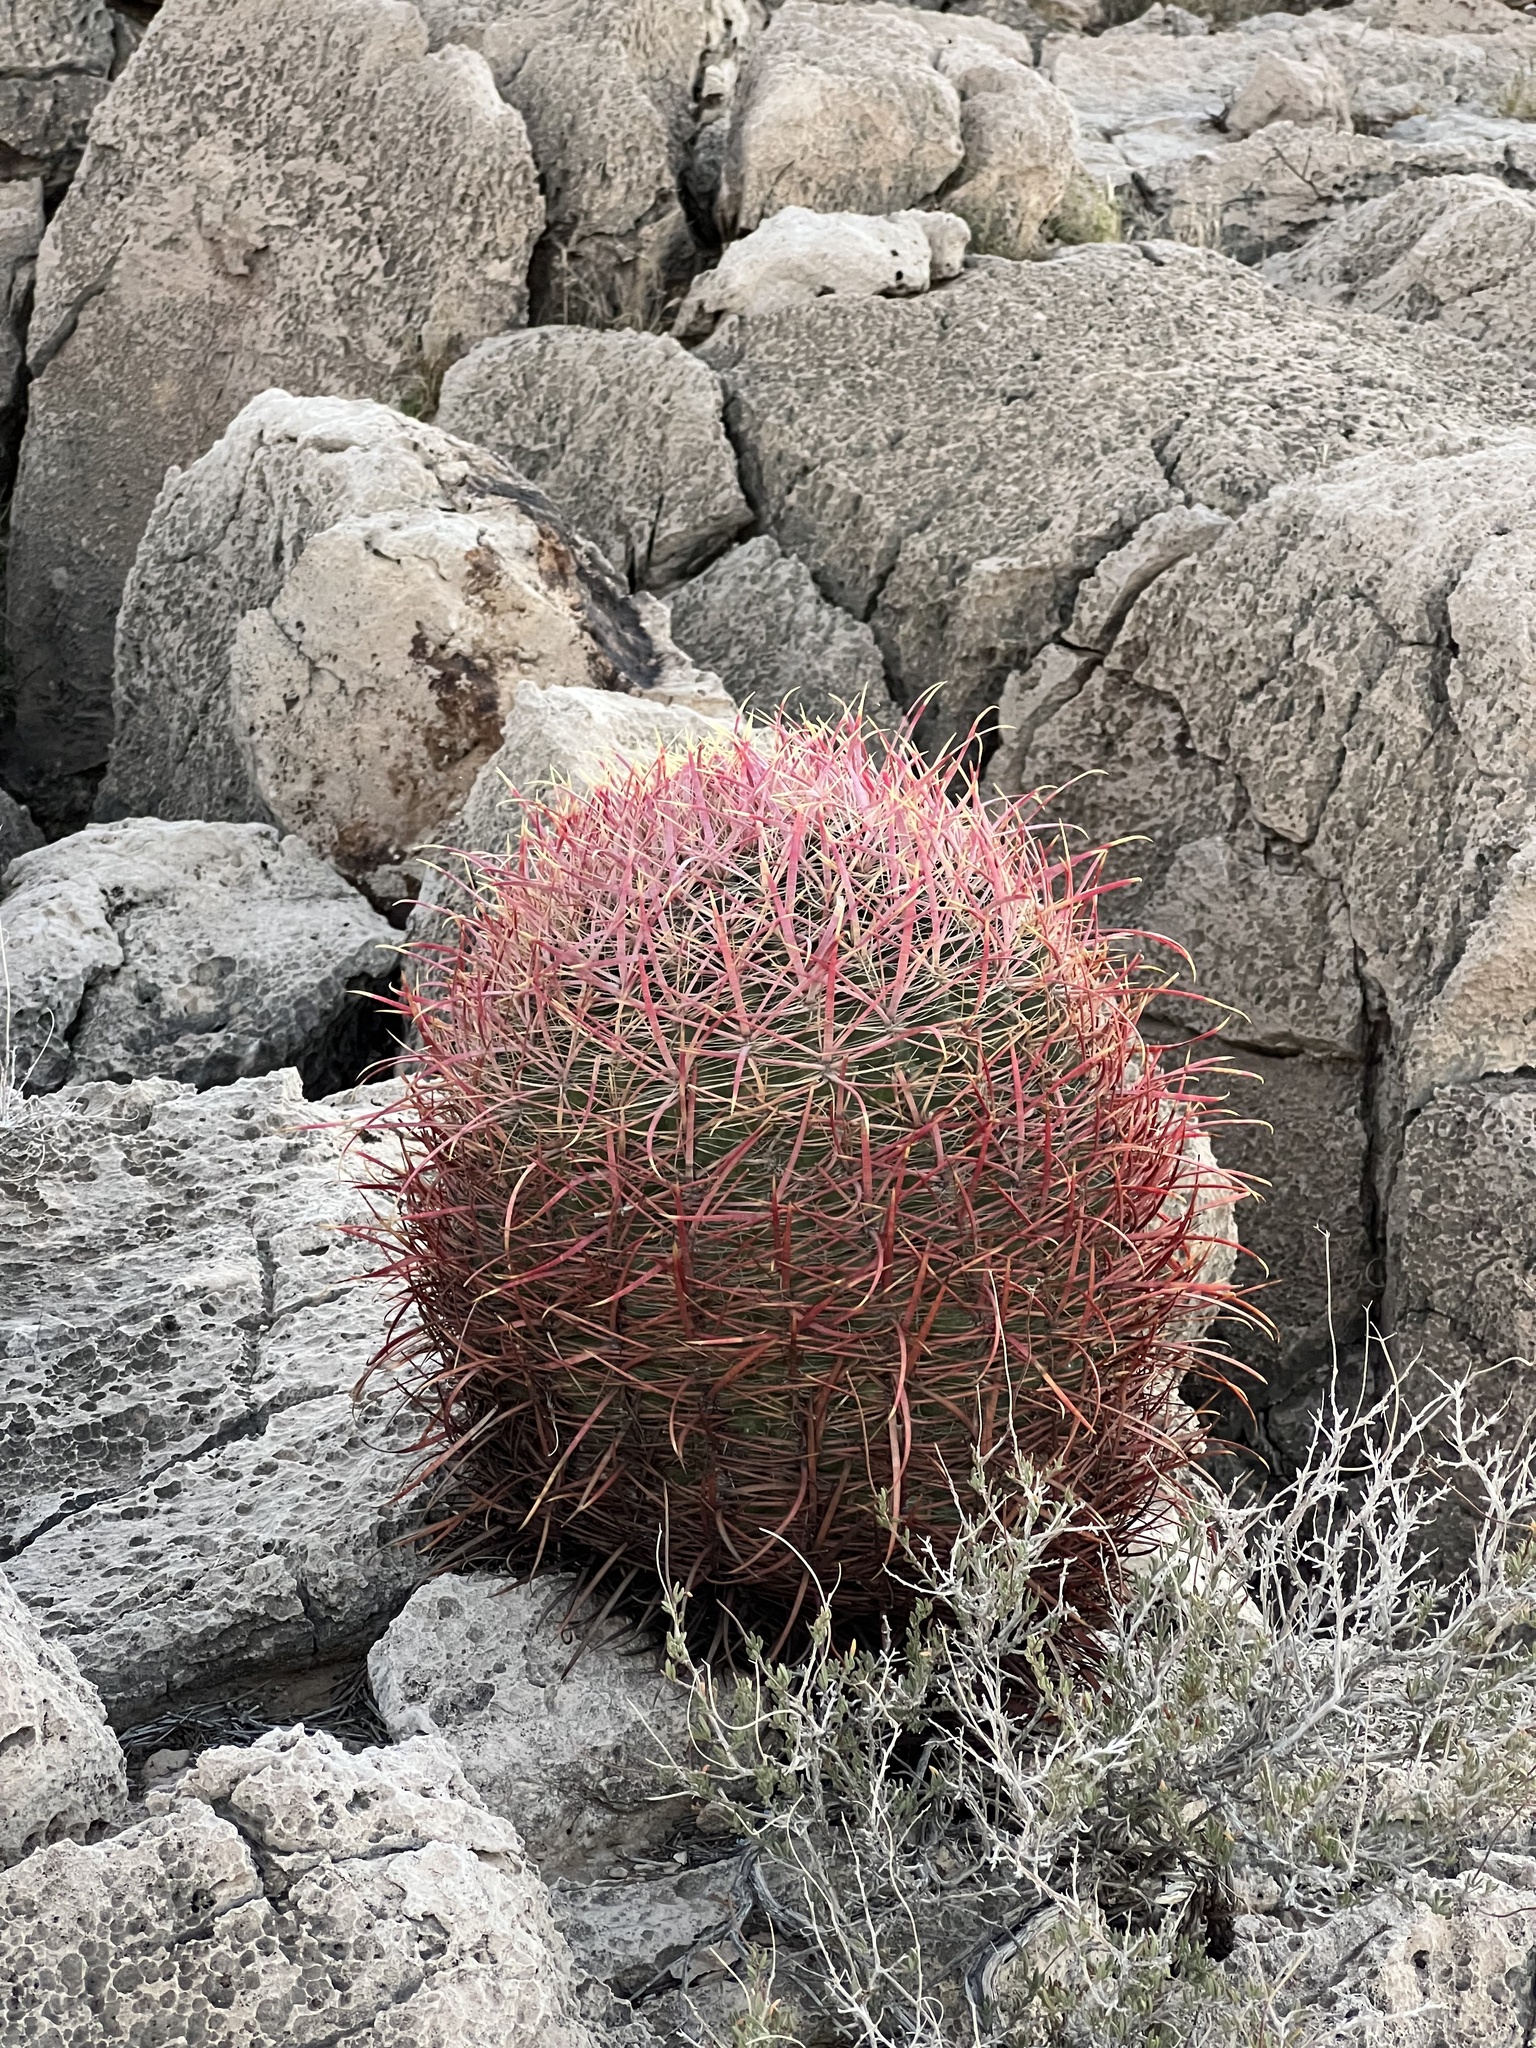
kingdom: Plantae
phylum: Tracheophyta
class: Magnoliopsida
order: Caryophyllales
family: Cactaceae
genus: Ferocactus
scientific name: Ferocactus cylindraceus
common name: California barrel cactus
